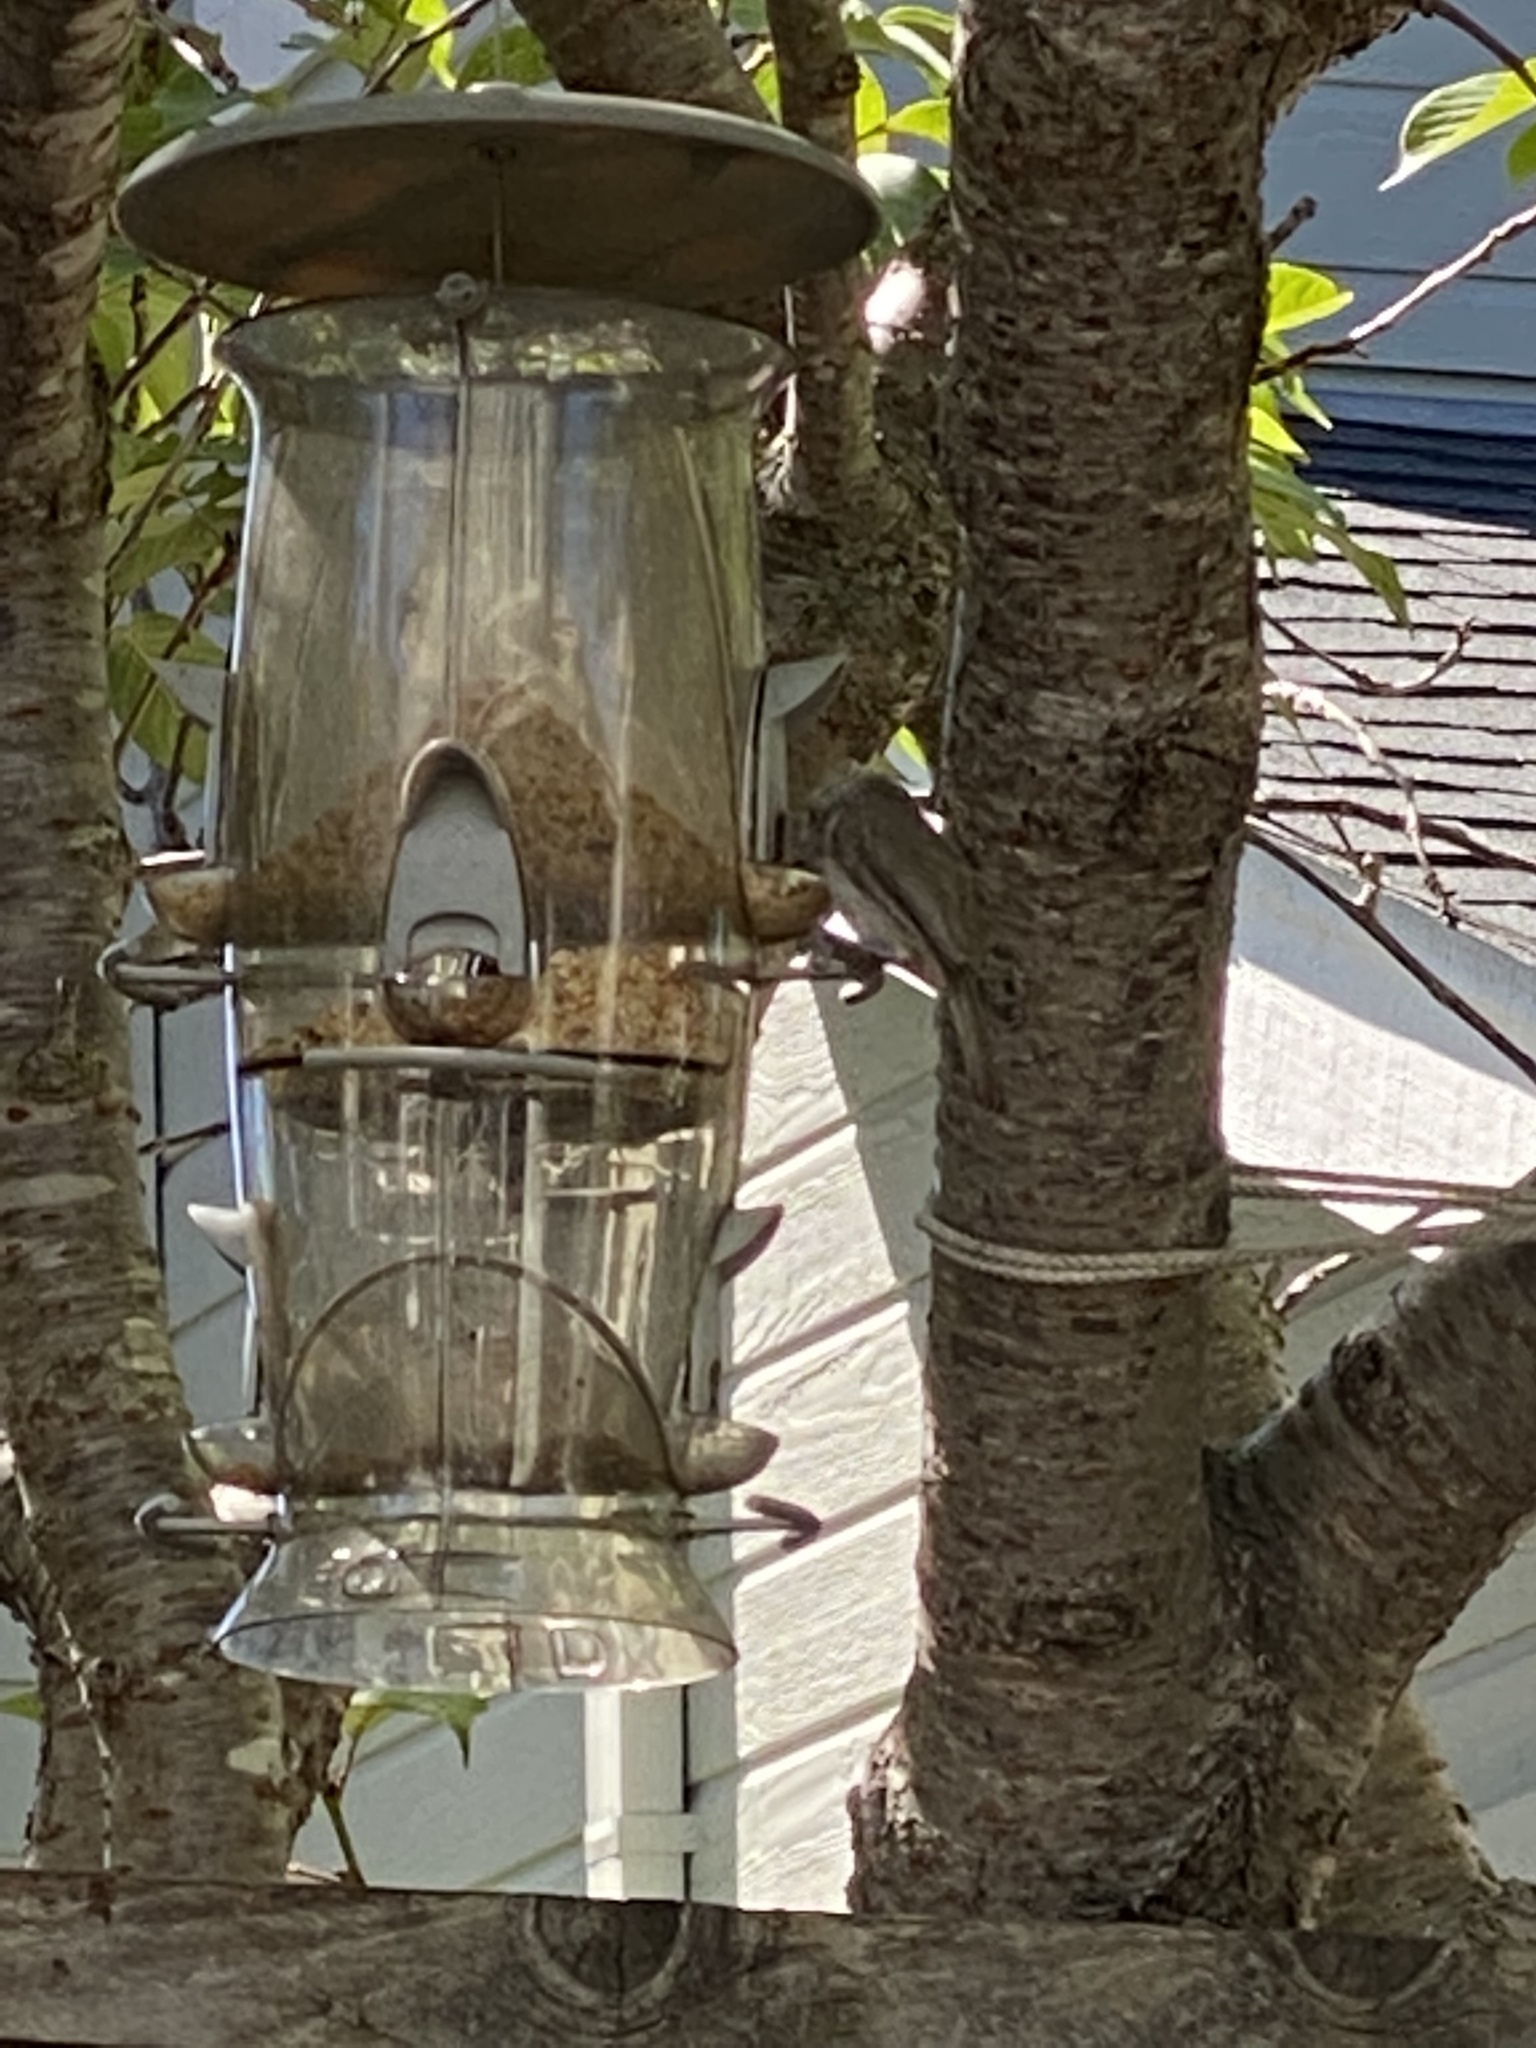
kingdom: Animalia
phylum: Chordata
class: Aves
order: Passeriformes
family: Paridae
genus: Baeolophus
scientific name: Baeolophus inornatus
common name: Oak titmouse
